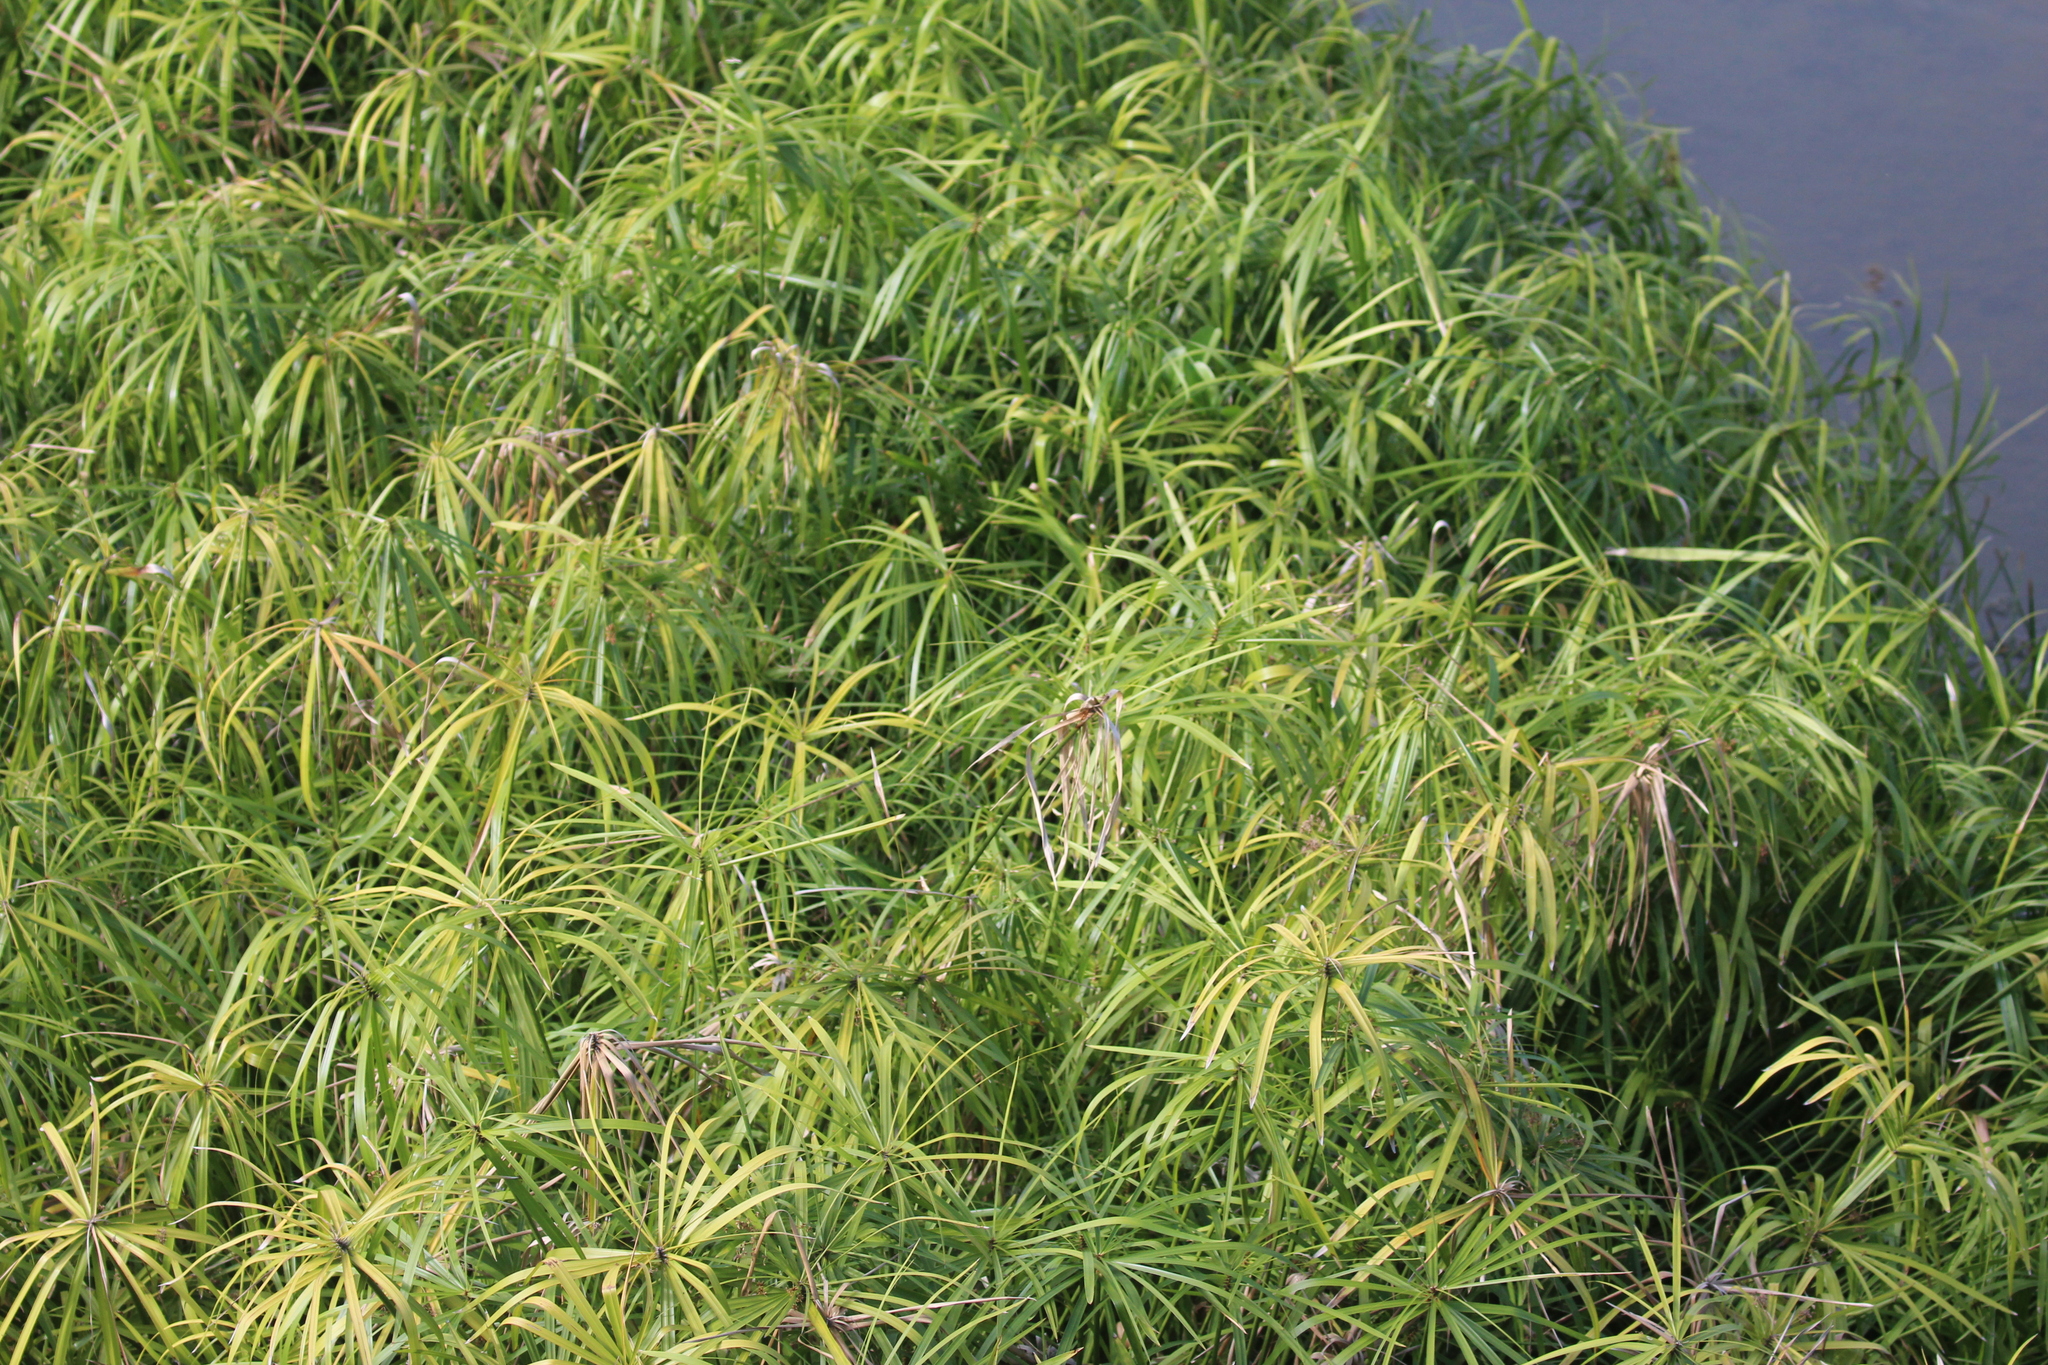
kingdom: Plantae
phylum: Tracheophyta
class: Liliopsida
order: Poales
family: Cyperaceae
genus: Cyperus
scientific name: Cyperus alternifolius
